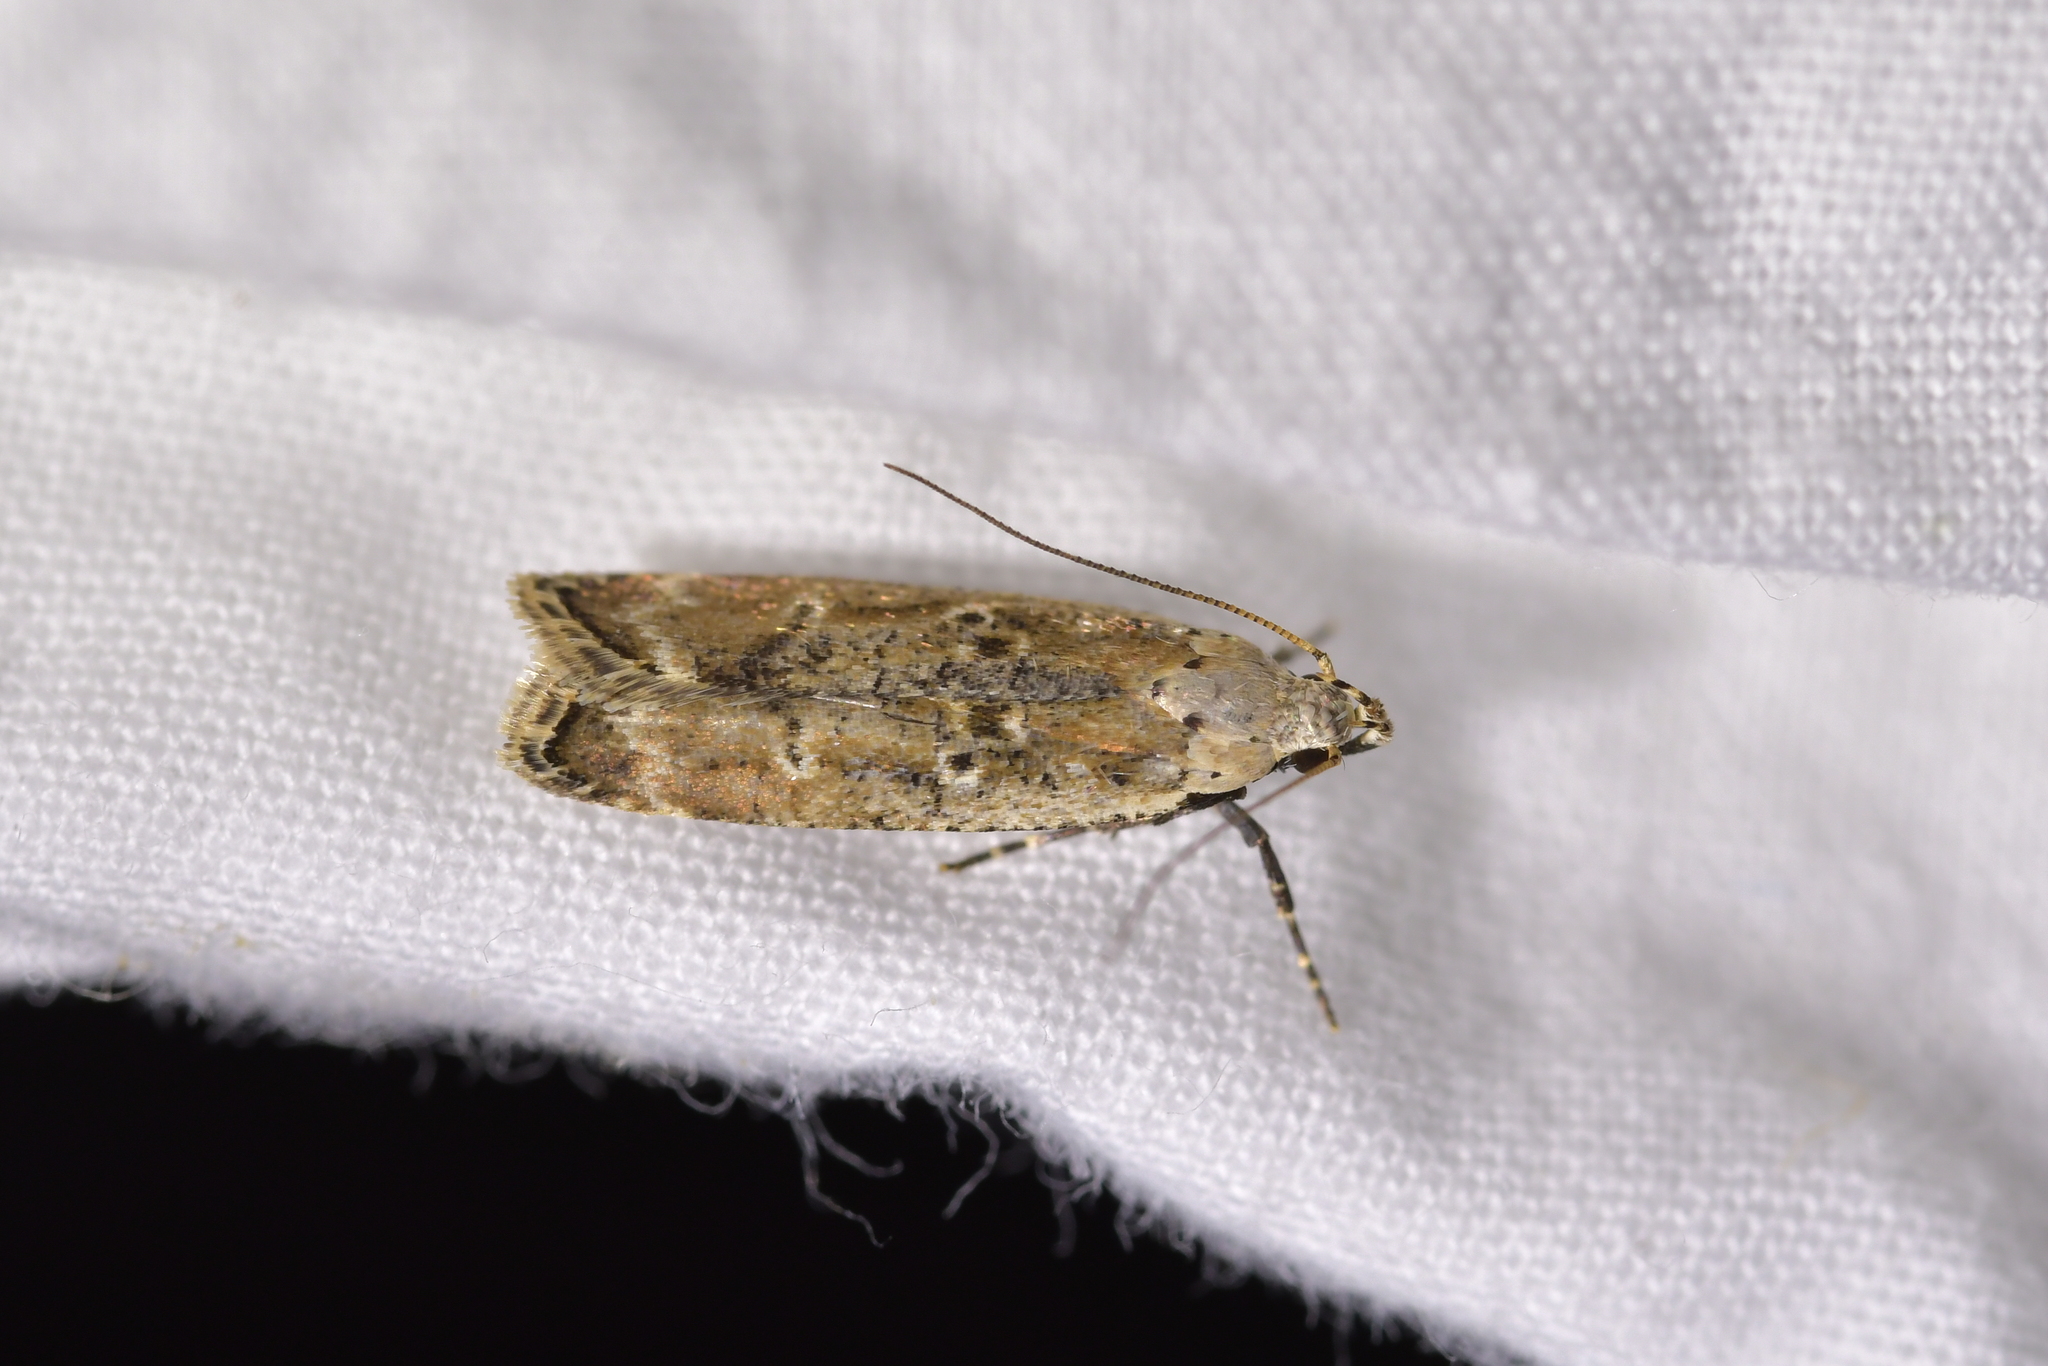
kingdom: Animalia
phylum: Arthropoda
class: Insecta
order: Lepidoptera
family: Gelechiidae
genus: Anisoplaca
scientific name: Anisoplaca achyrota
